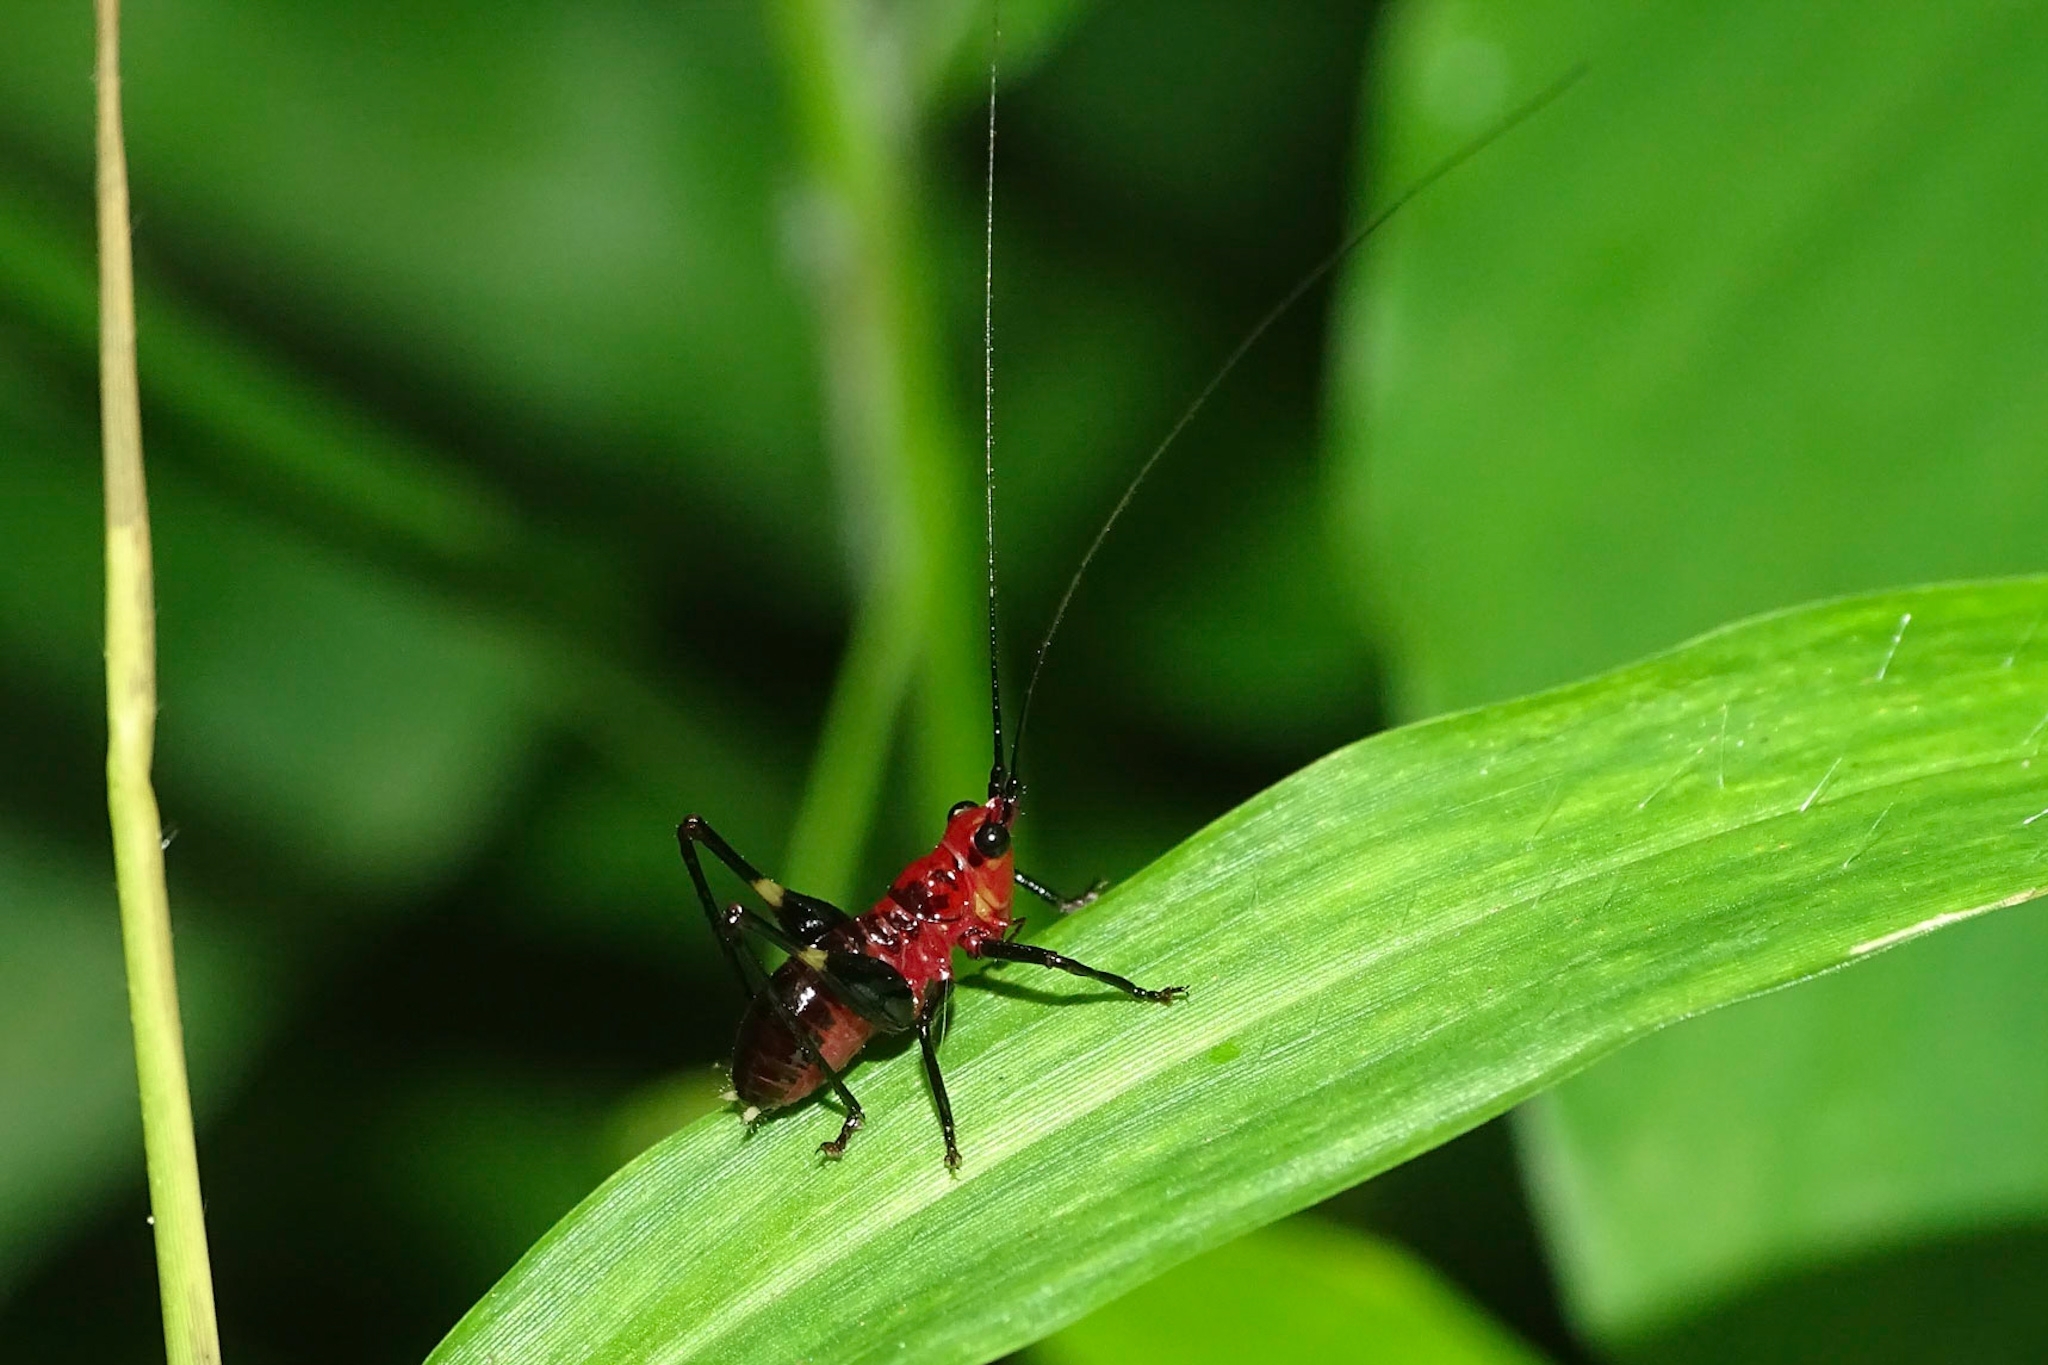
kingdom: Animalia
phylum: Arthropoda
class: Insecta
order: Orthoptera
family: Tettigoniidae
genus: Conocephalus
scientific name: Conocephalus melaenus
